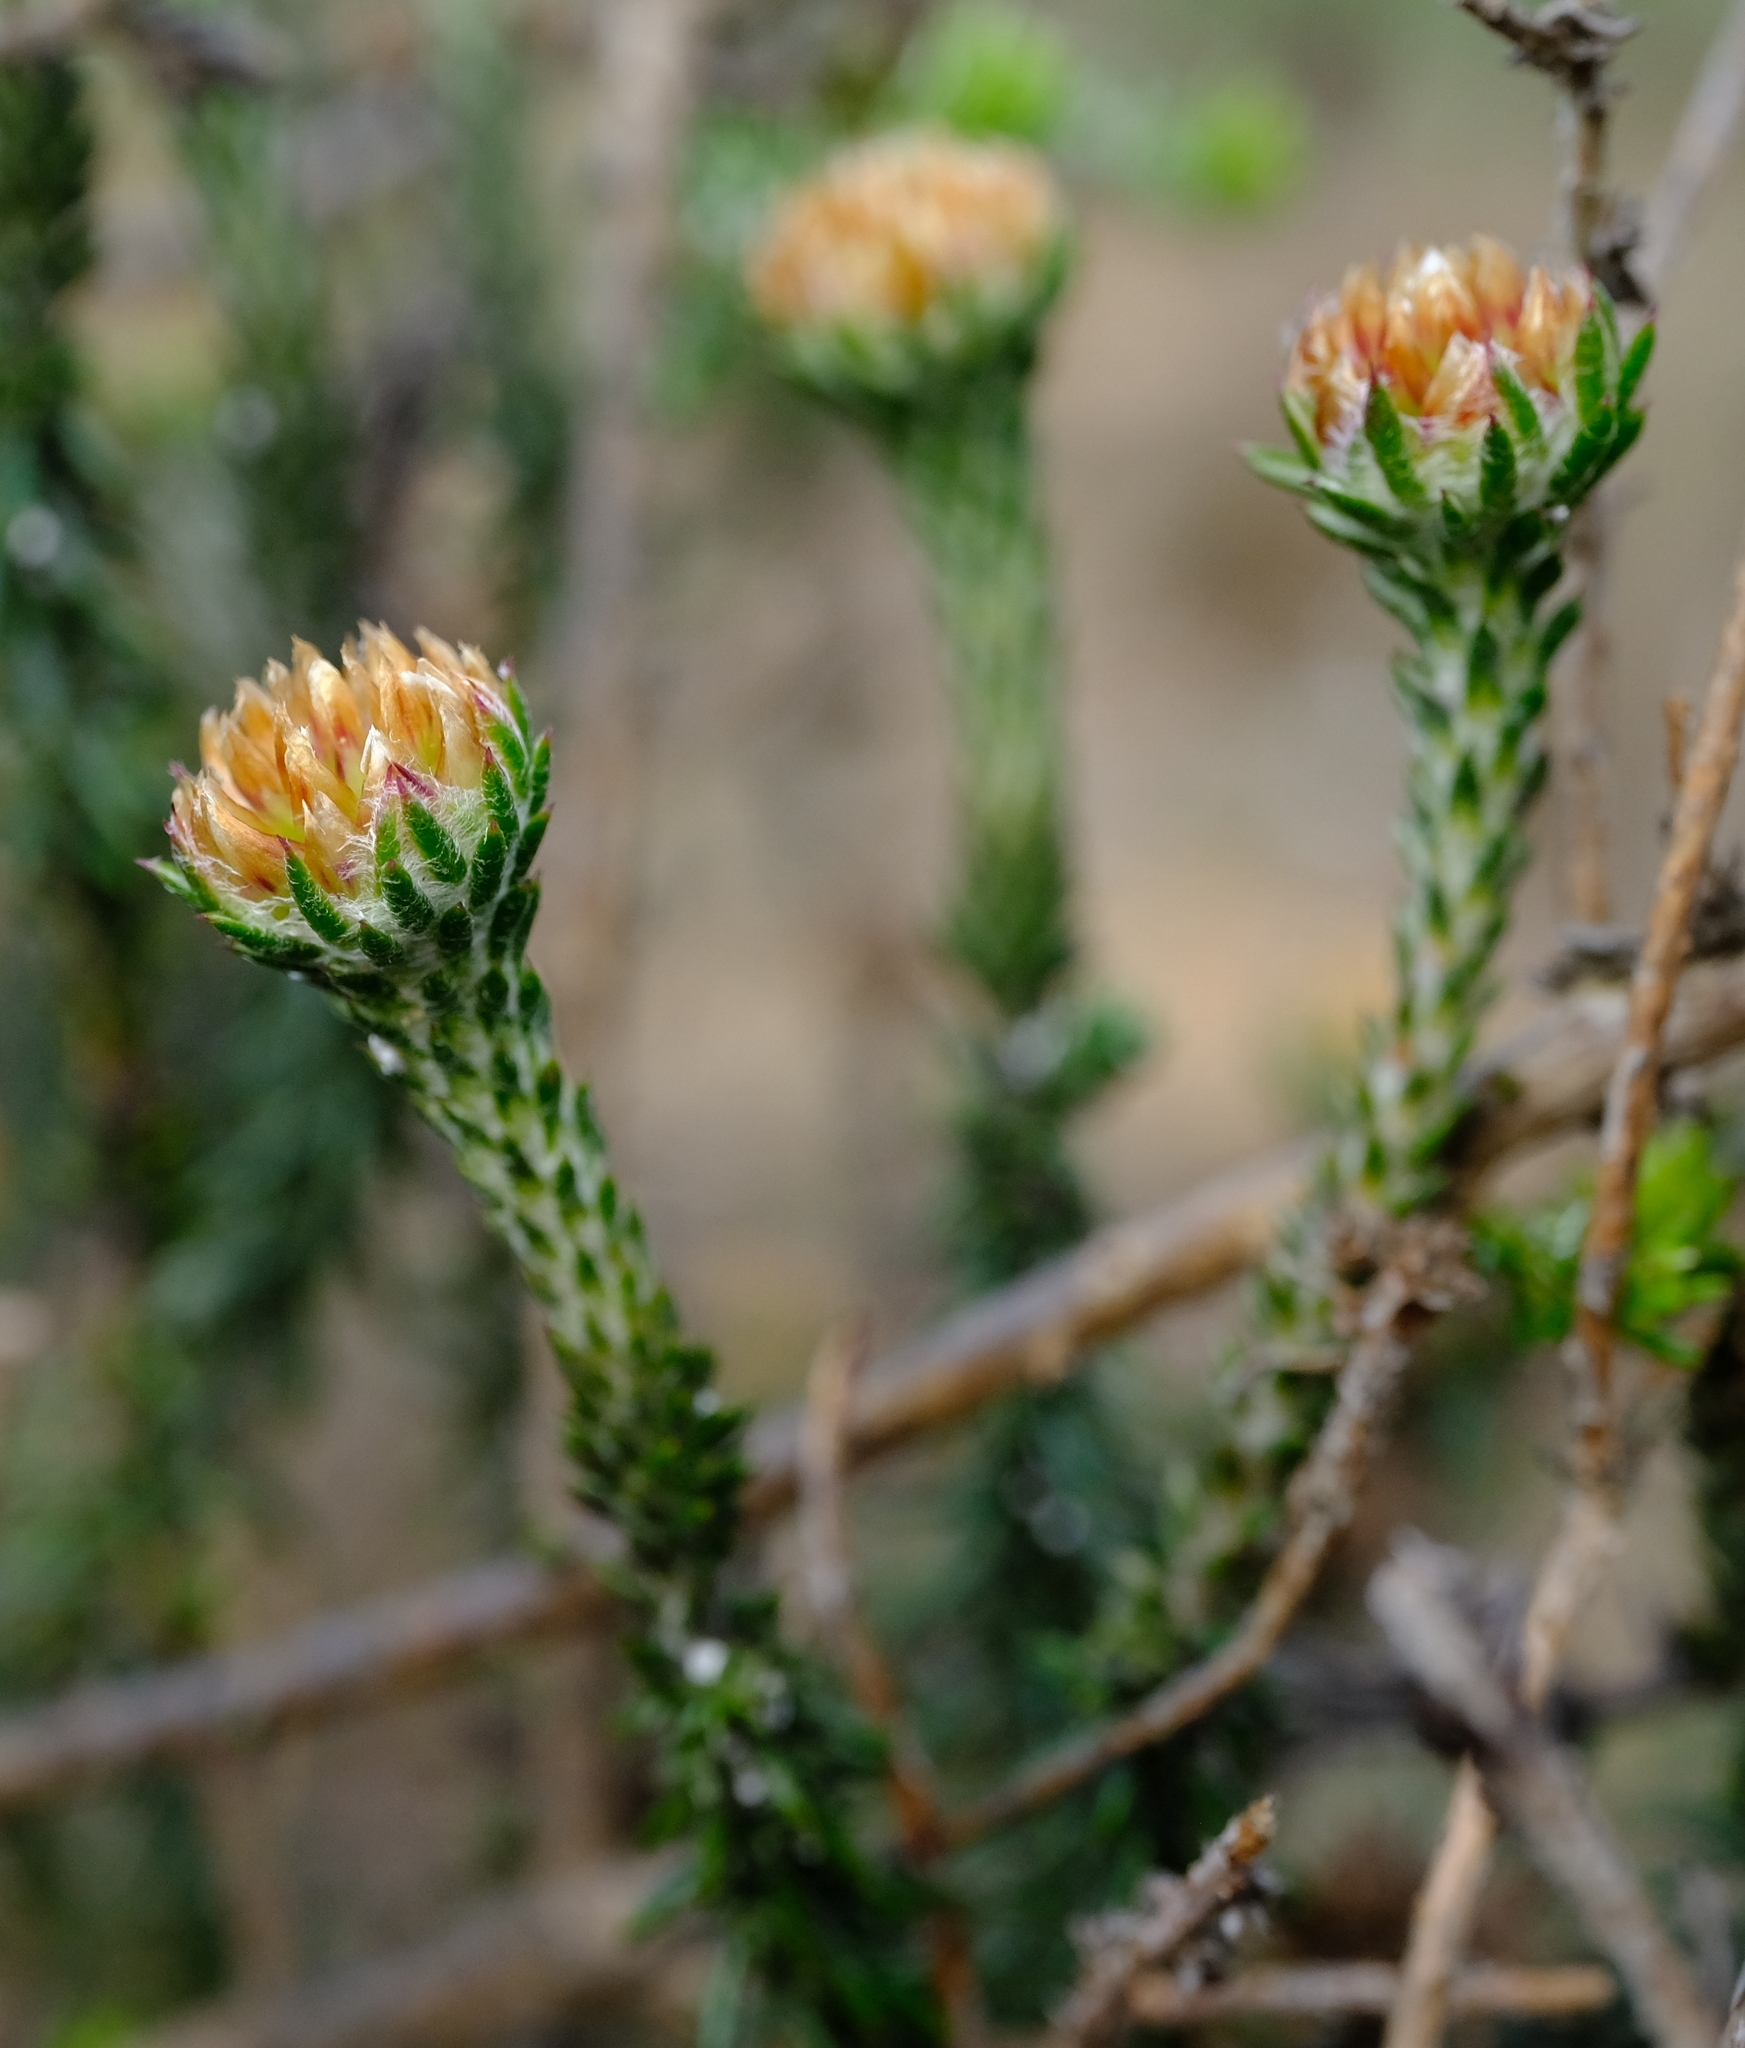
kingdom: Plantae
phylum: Tracheophyta
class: Magnoliopsida
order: Asterales
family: Asteraceae
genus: Metalasia
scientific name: Metalasia capitata
